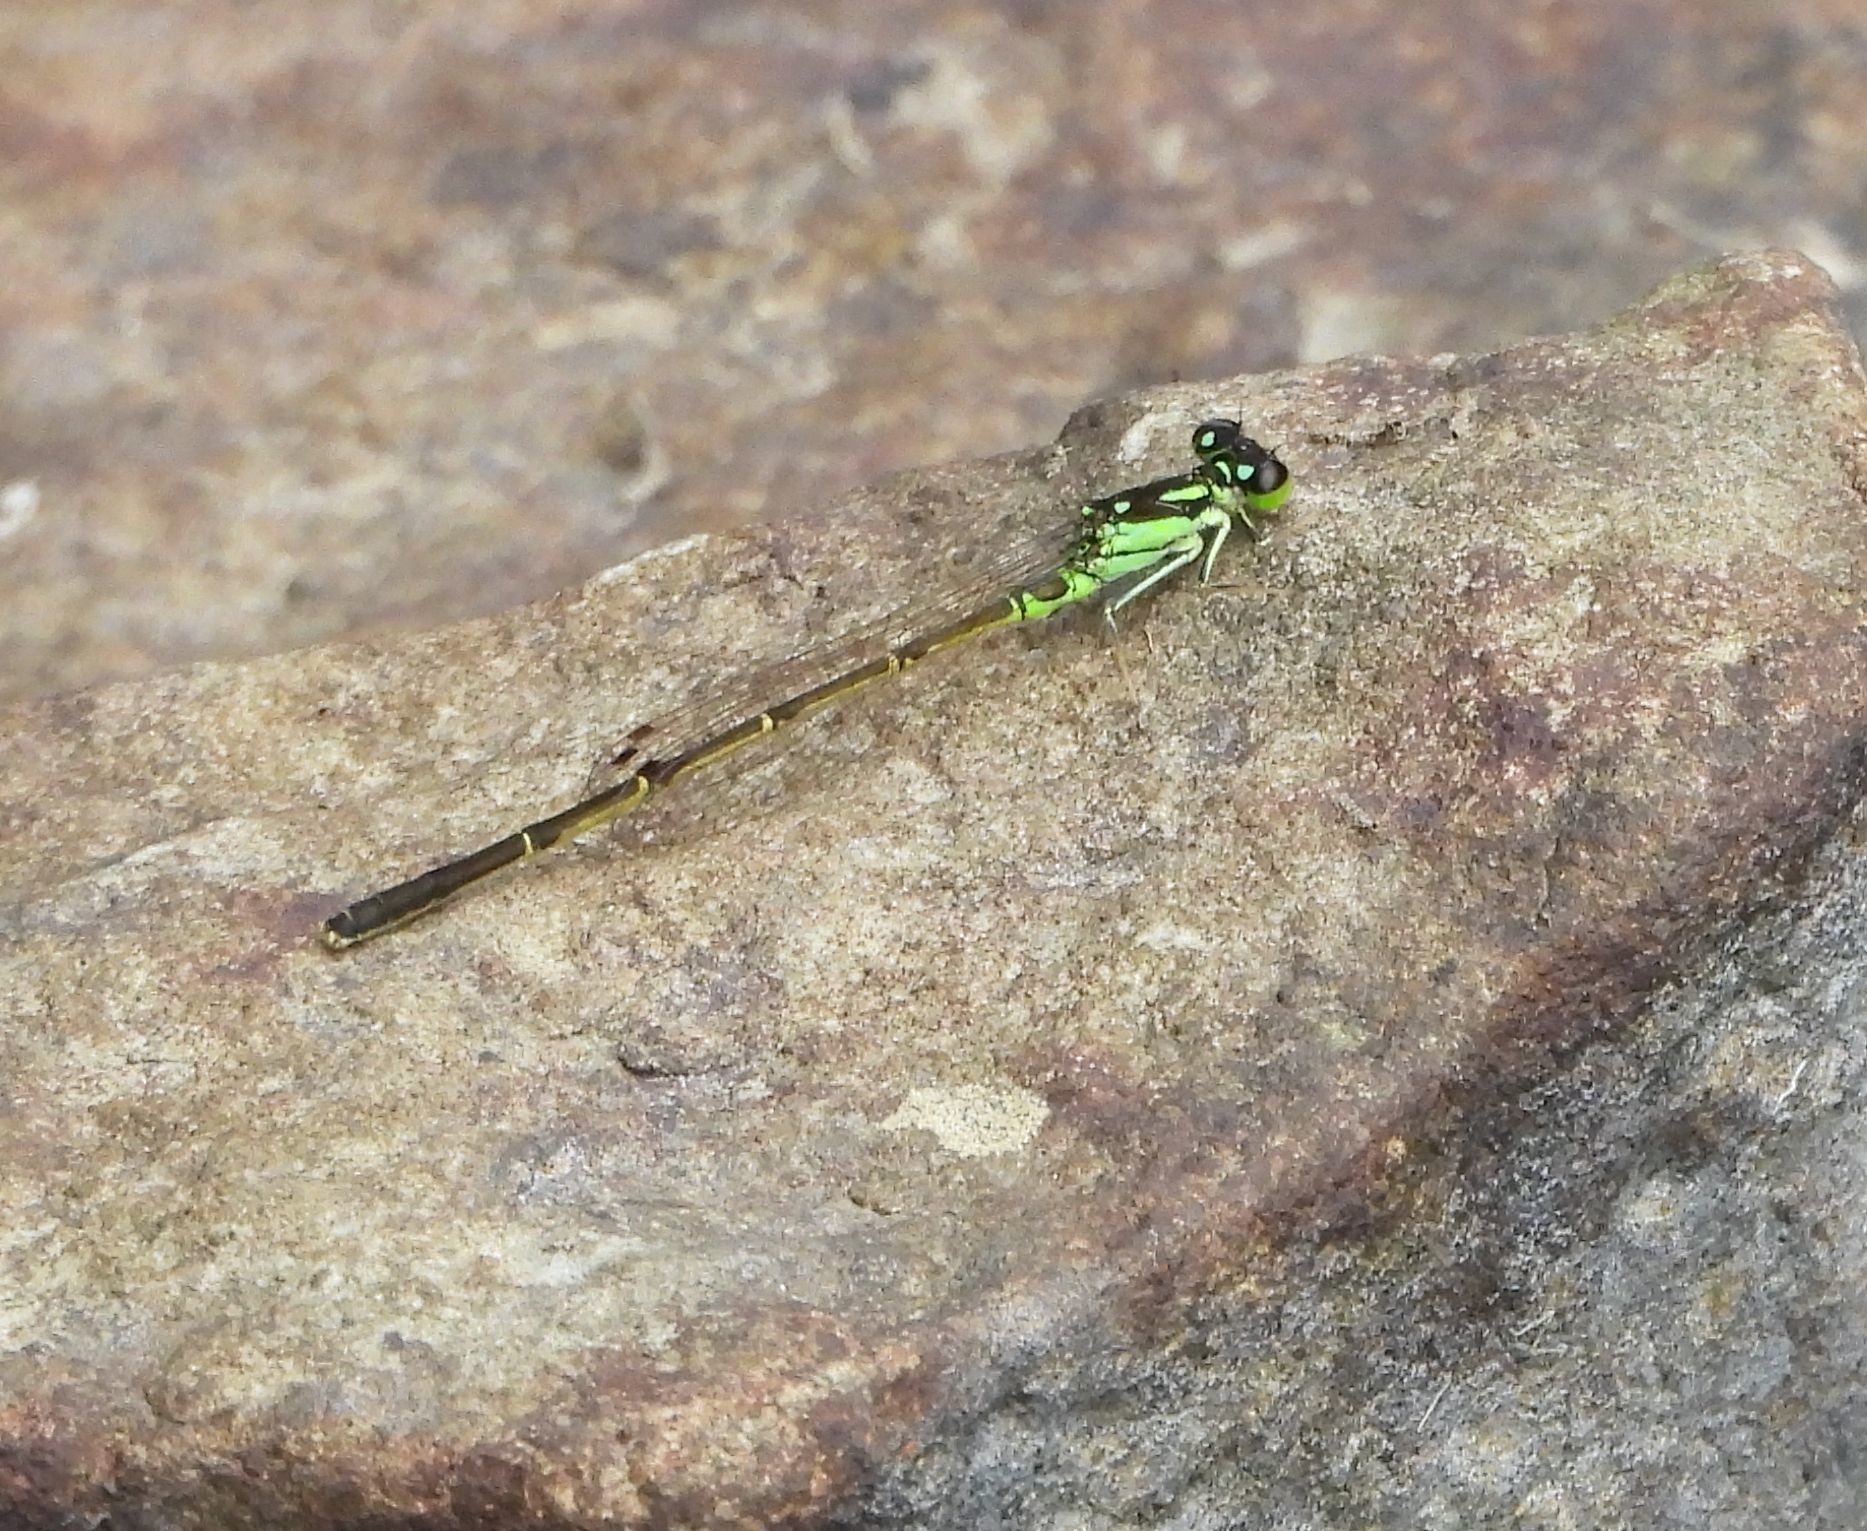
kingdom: Animalia
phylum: Arthropoda
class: Insecta
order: Odonata
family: Coenagrionidae
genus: Ischnura
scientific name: Ischnura posita
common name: Fragile forktail
